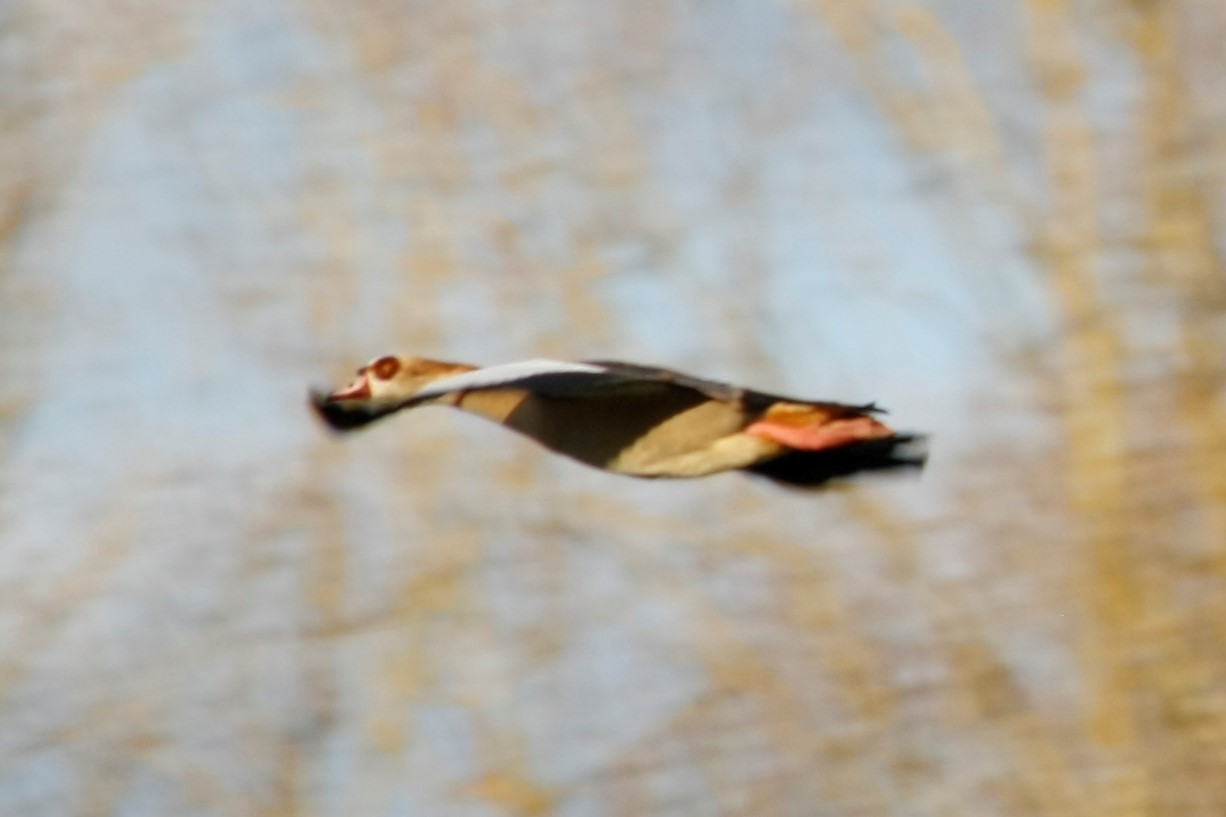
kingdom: Animalia
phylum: Chordata
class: Aves
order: Anseriformes
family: Anatidae
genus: Alopochen
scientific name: Alopochen aegyptiaca
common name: Egyptian goose
